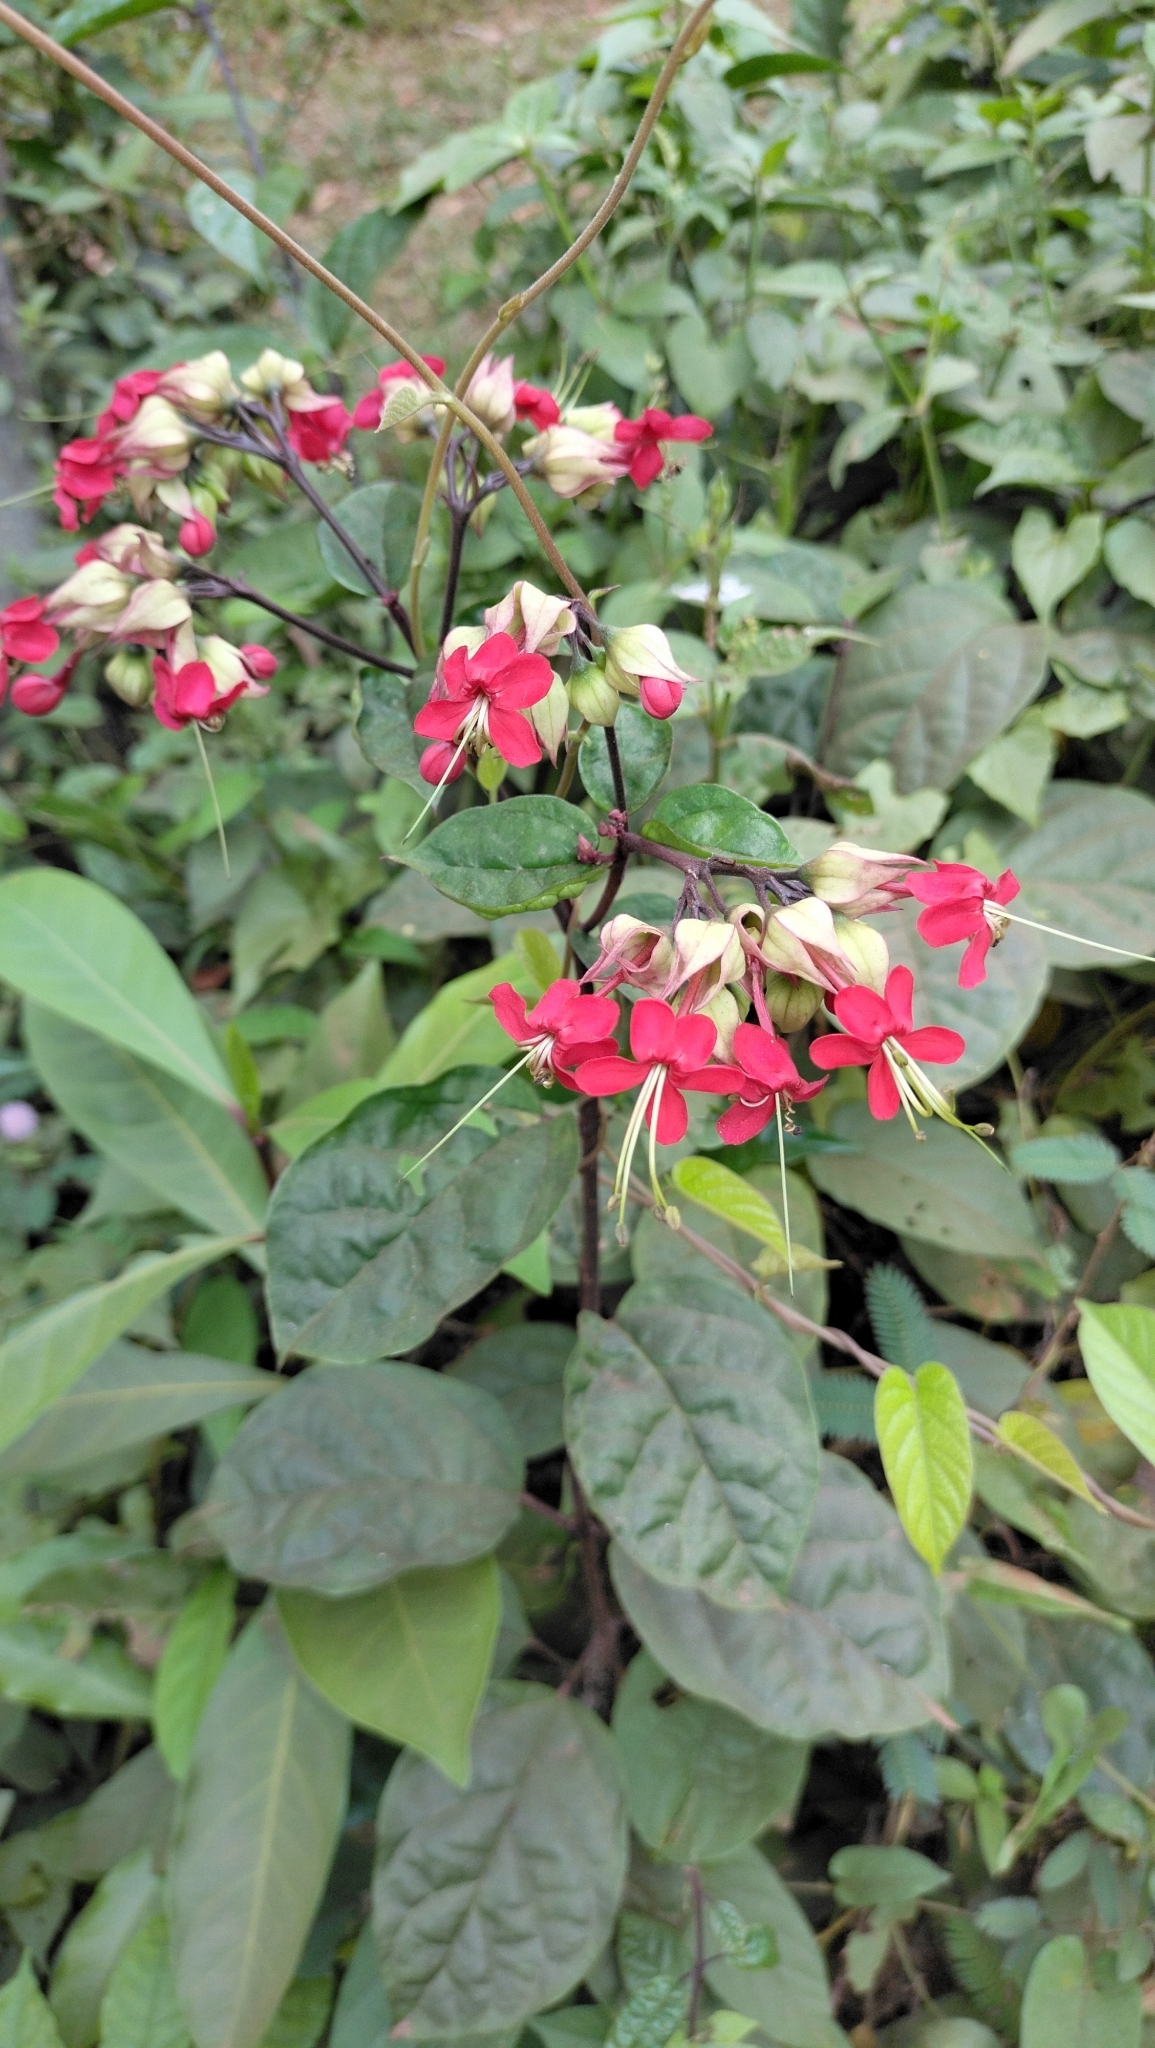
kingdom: Plantae
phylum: Tracheophyta
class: Magnoliopsida
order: Lamiales
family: Lamiaceae
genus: Clerodendrum
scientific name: Clerodendrum thomsoniae
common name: Bagflower
